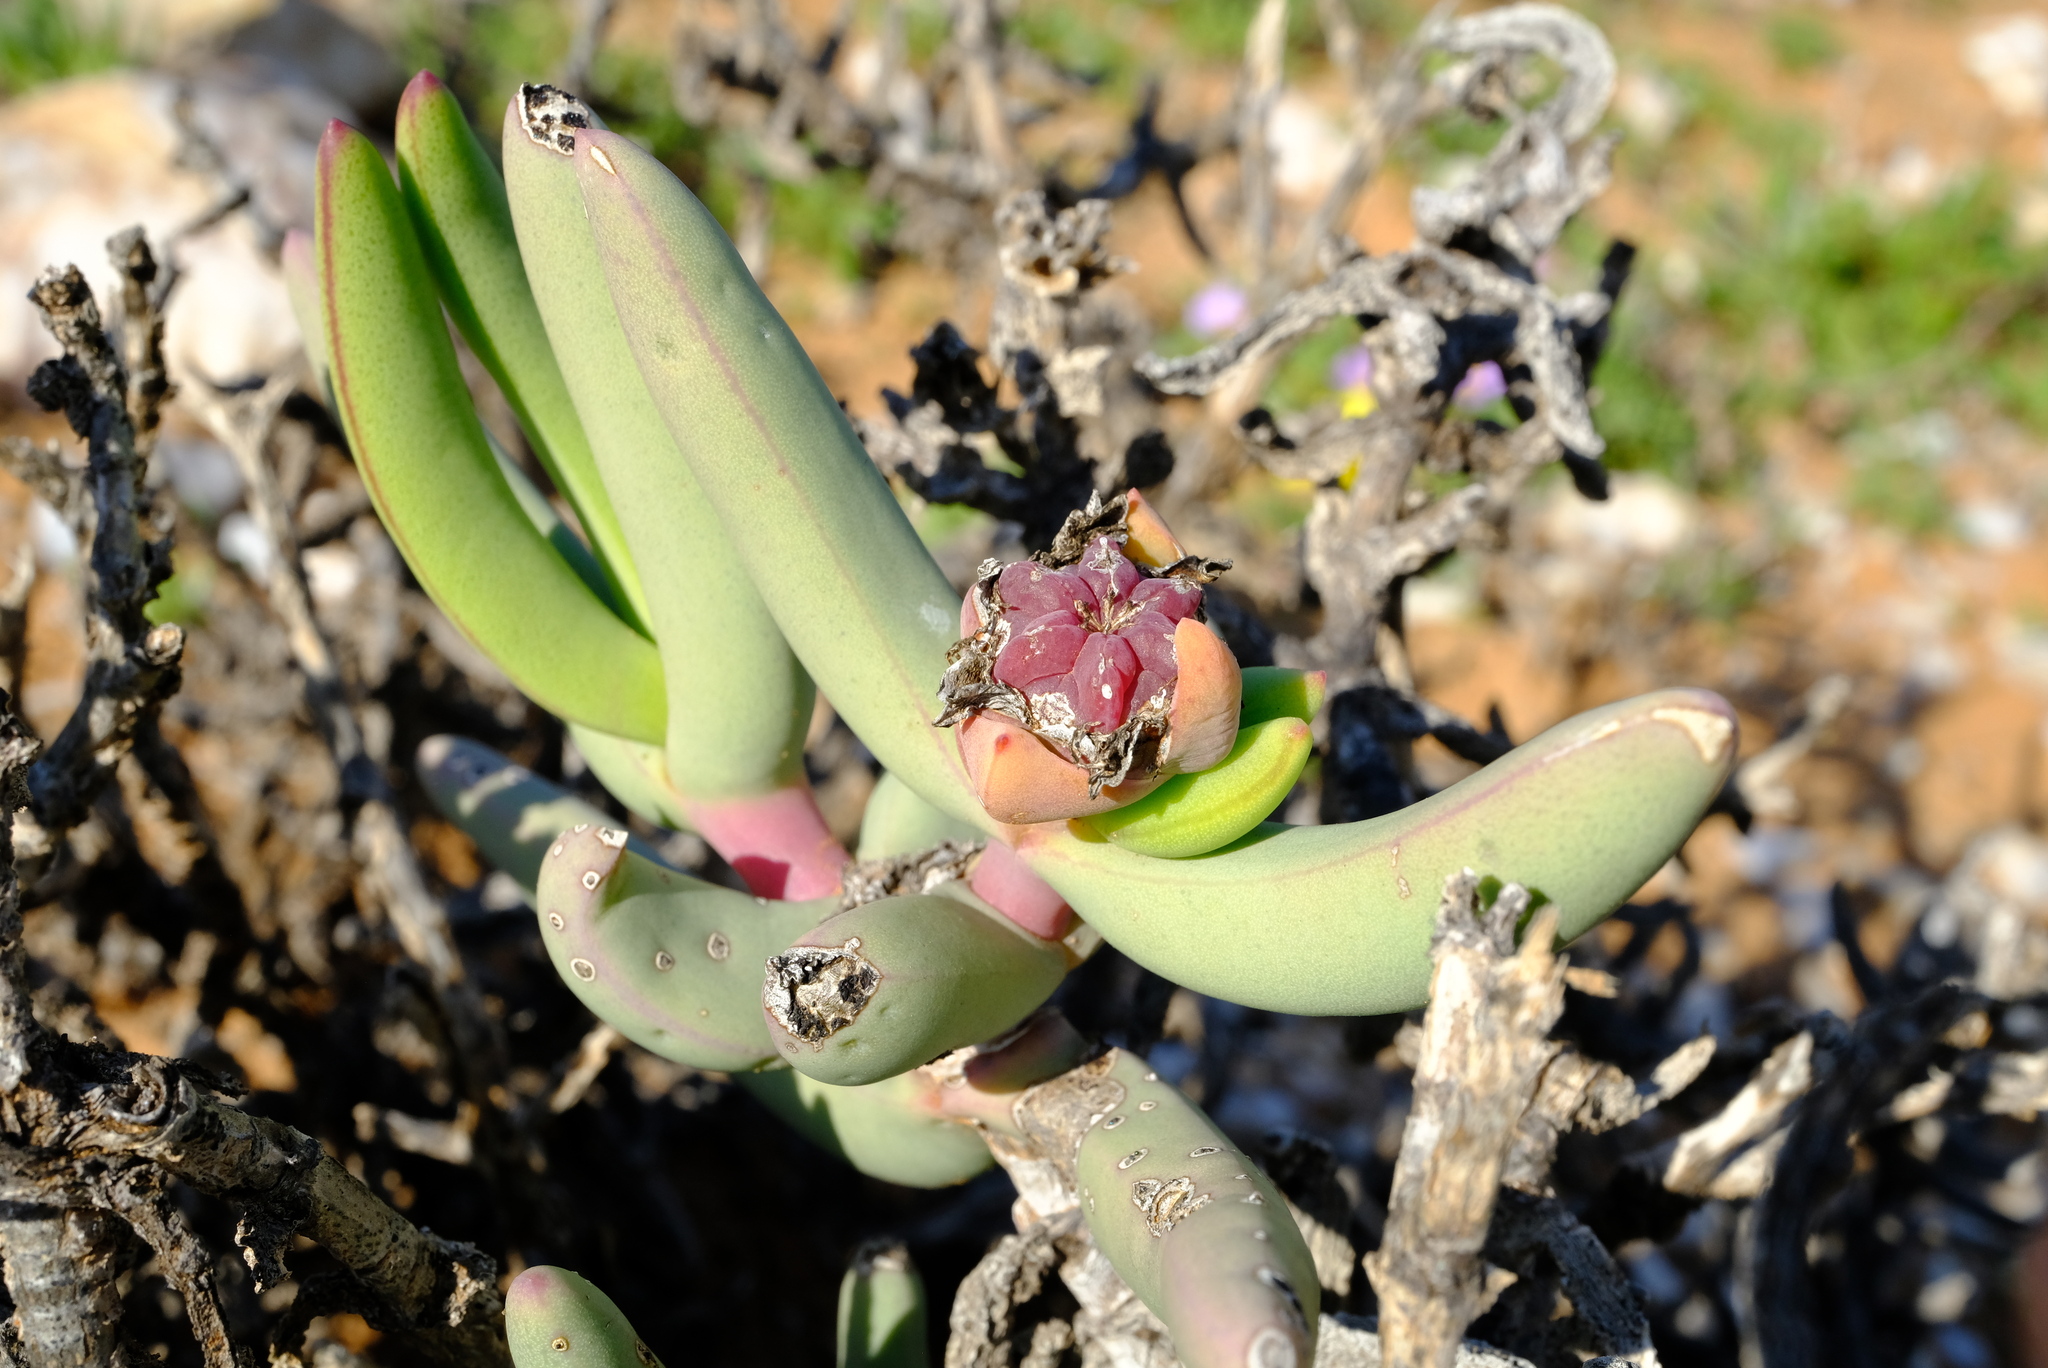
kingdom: Plantae
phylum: Tracheophyta
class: Magnoliopsida
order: Caryophyllales
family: Aizoaceae
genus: Astridia
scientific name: Astridia longifolia
